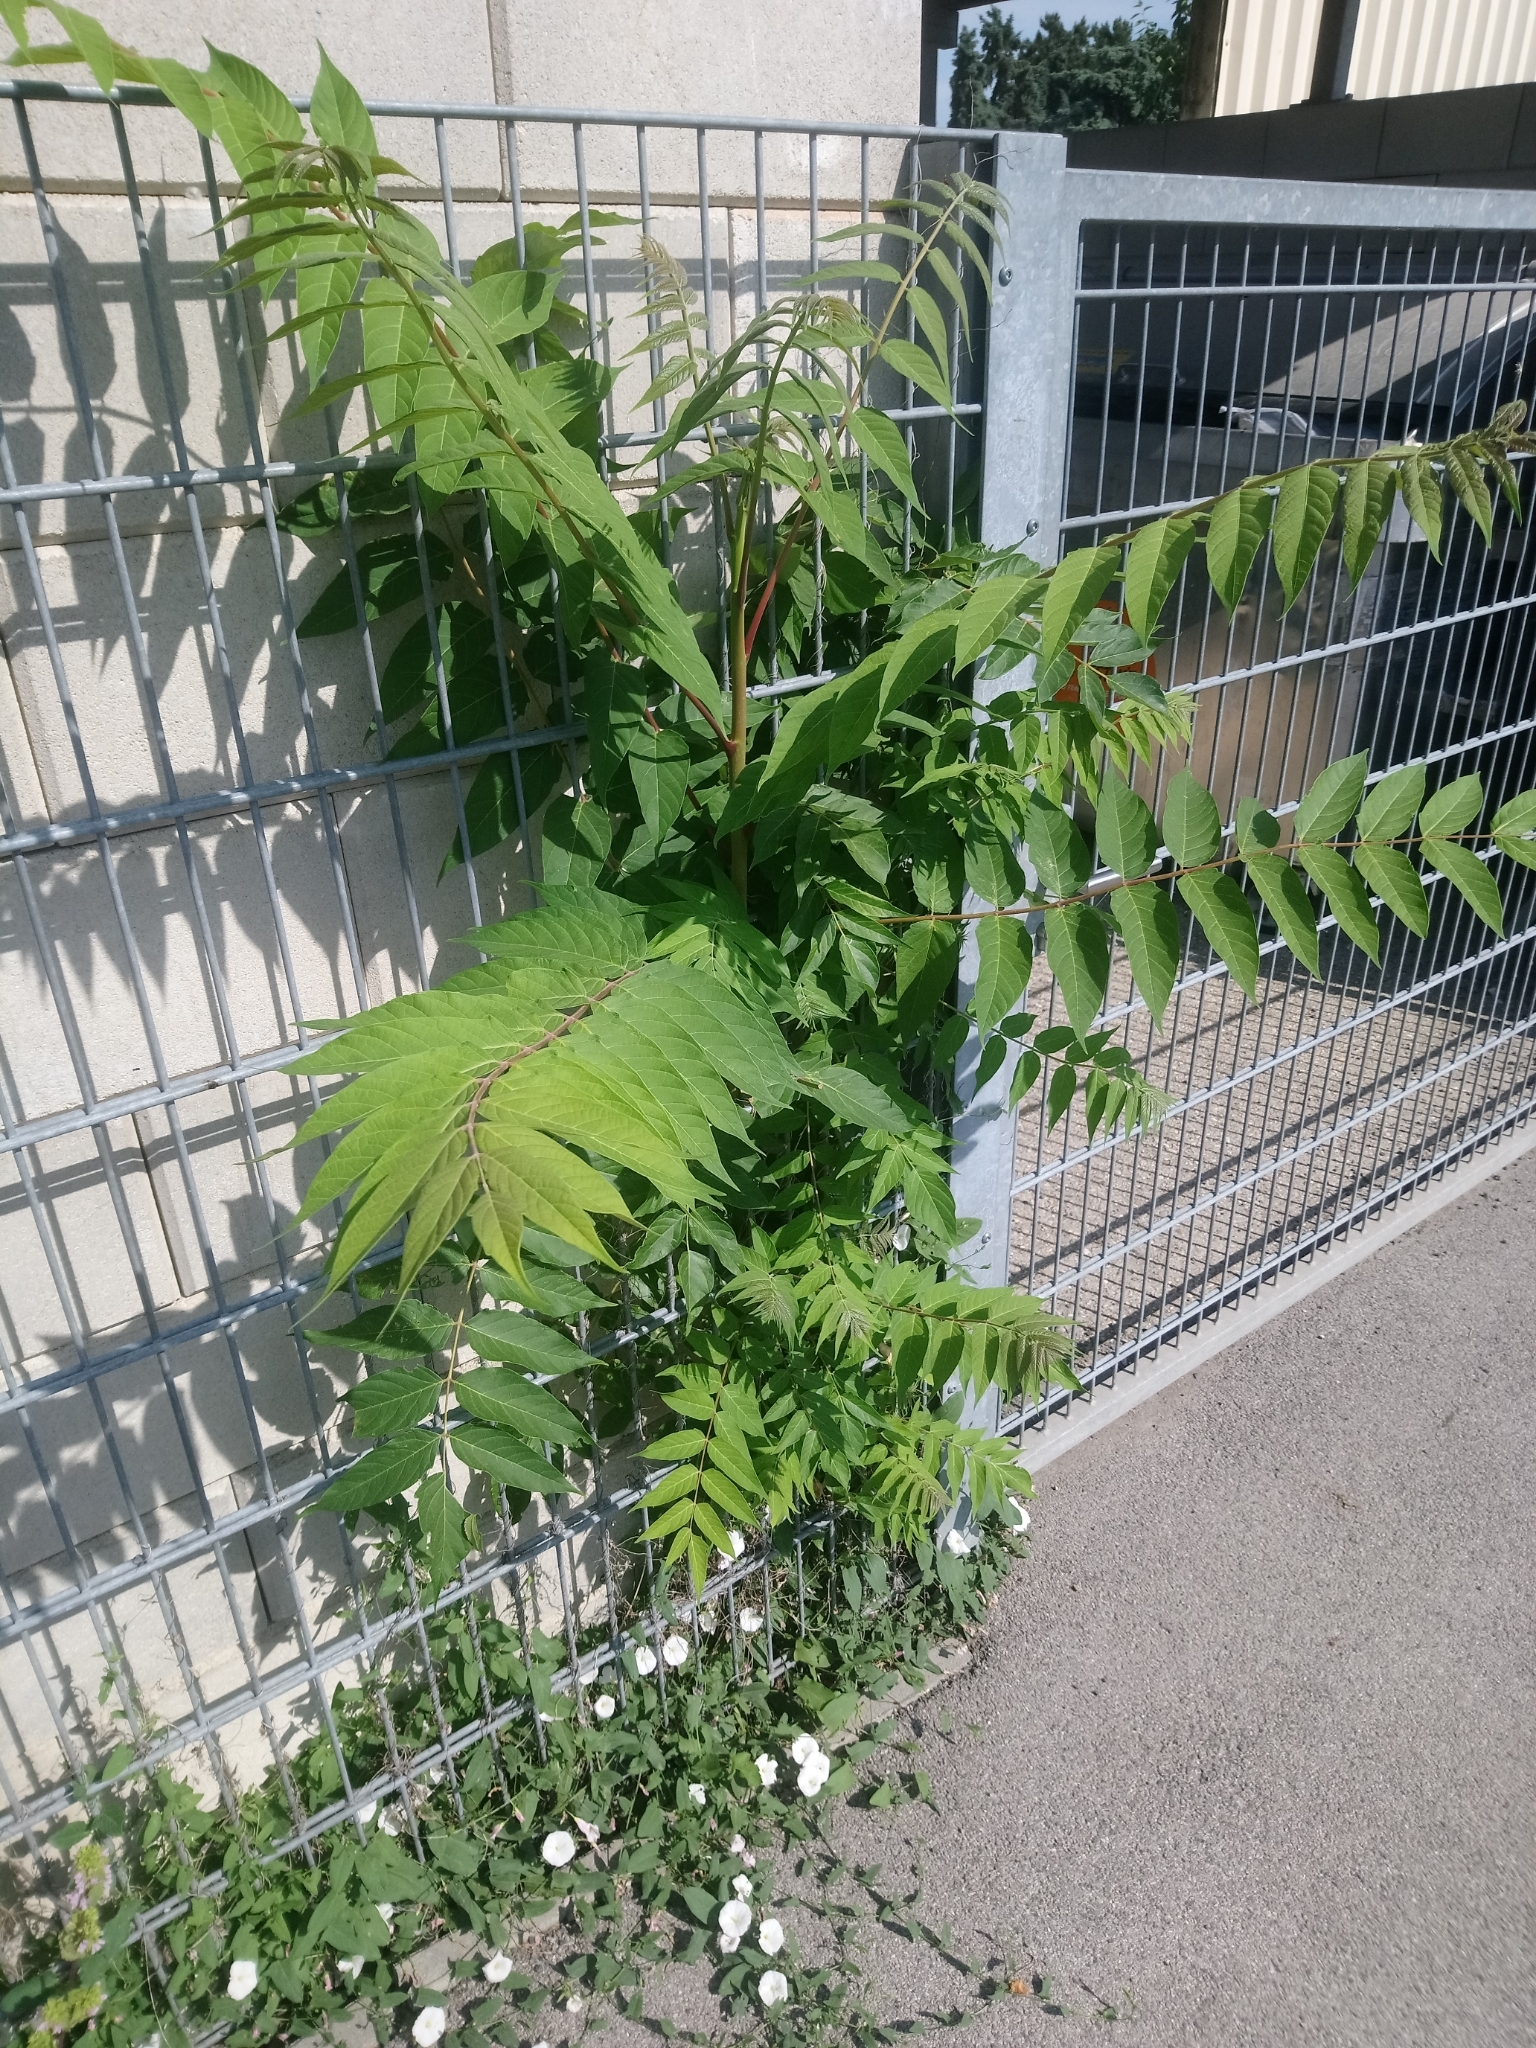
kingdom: Plantae
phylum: Tracheophyta
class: Magnoliopsida
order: Sapindales
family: Simaroubaceae
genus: Ailanthus
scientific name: Ailanthus altissima
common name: Tree-of-heaven
